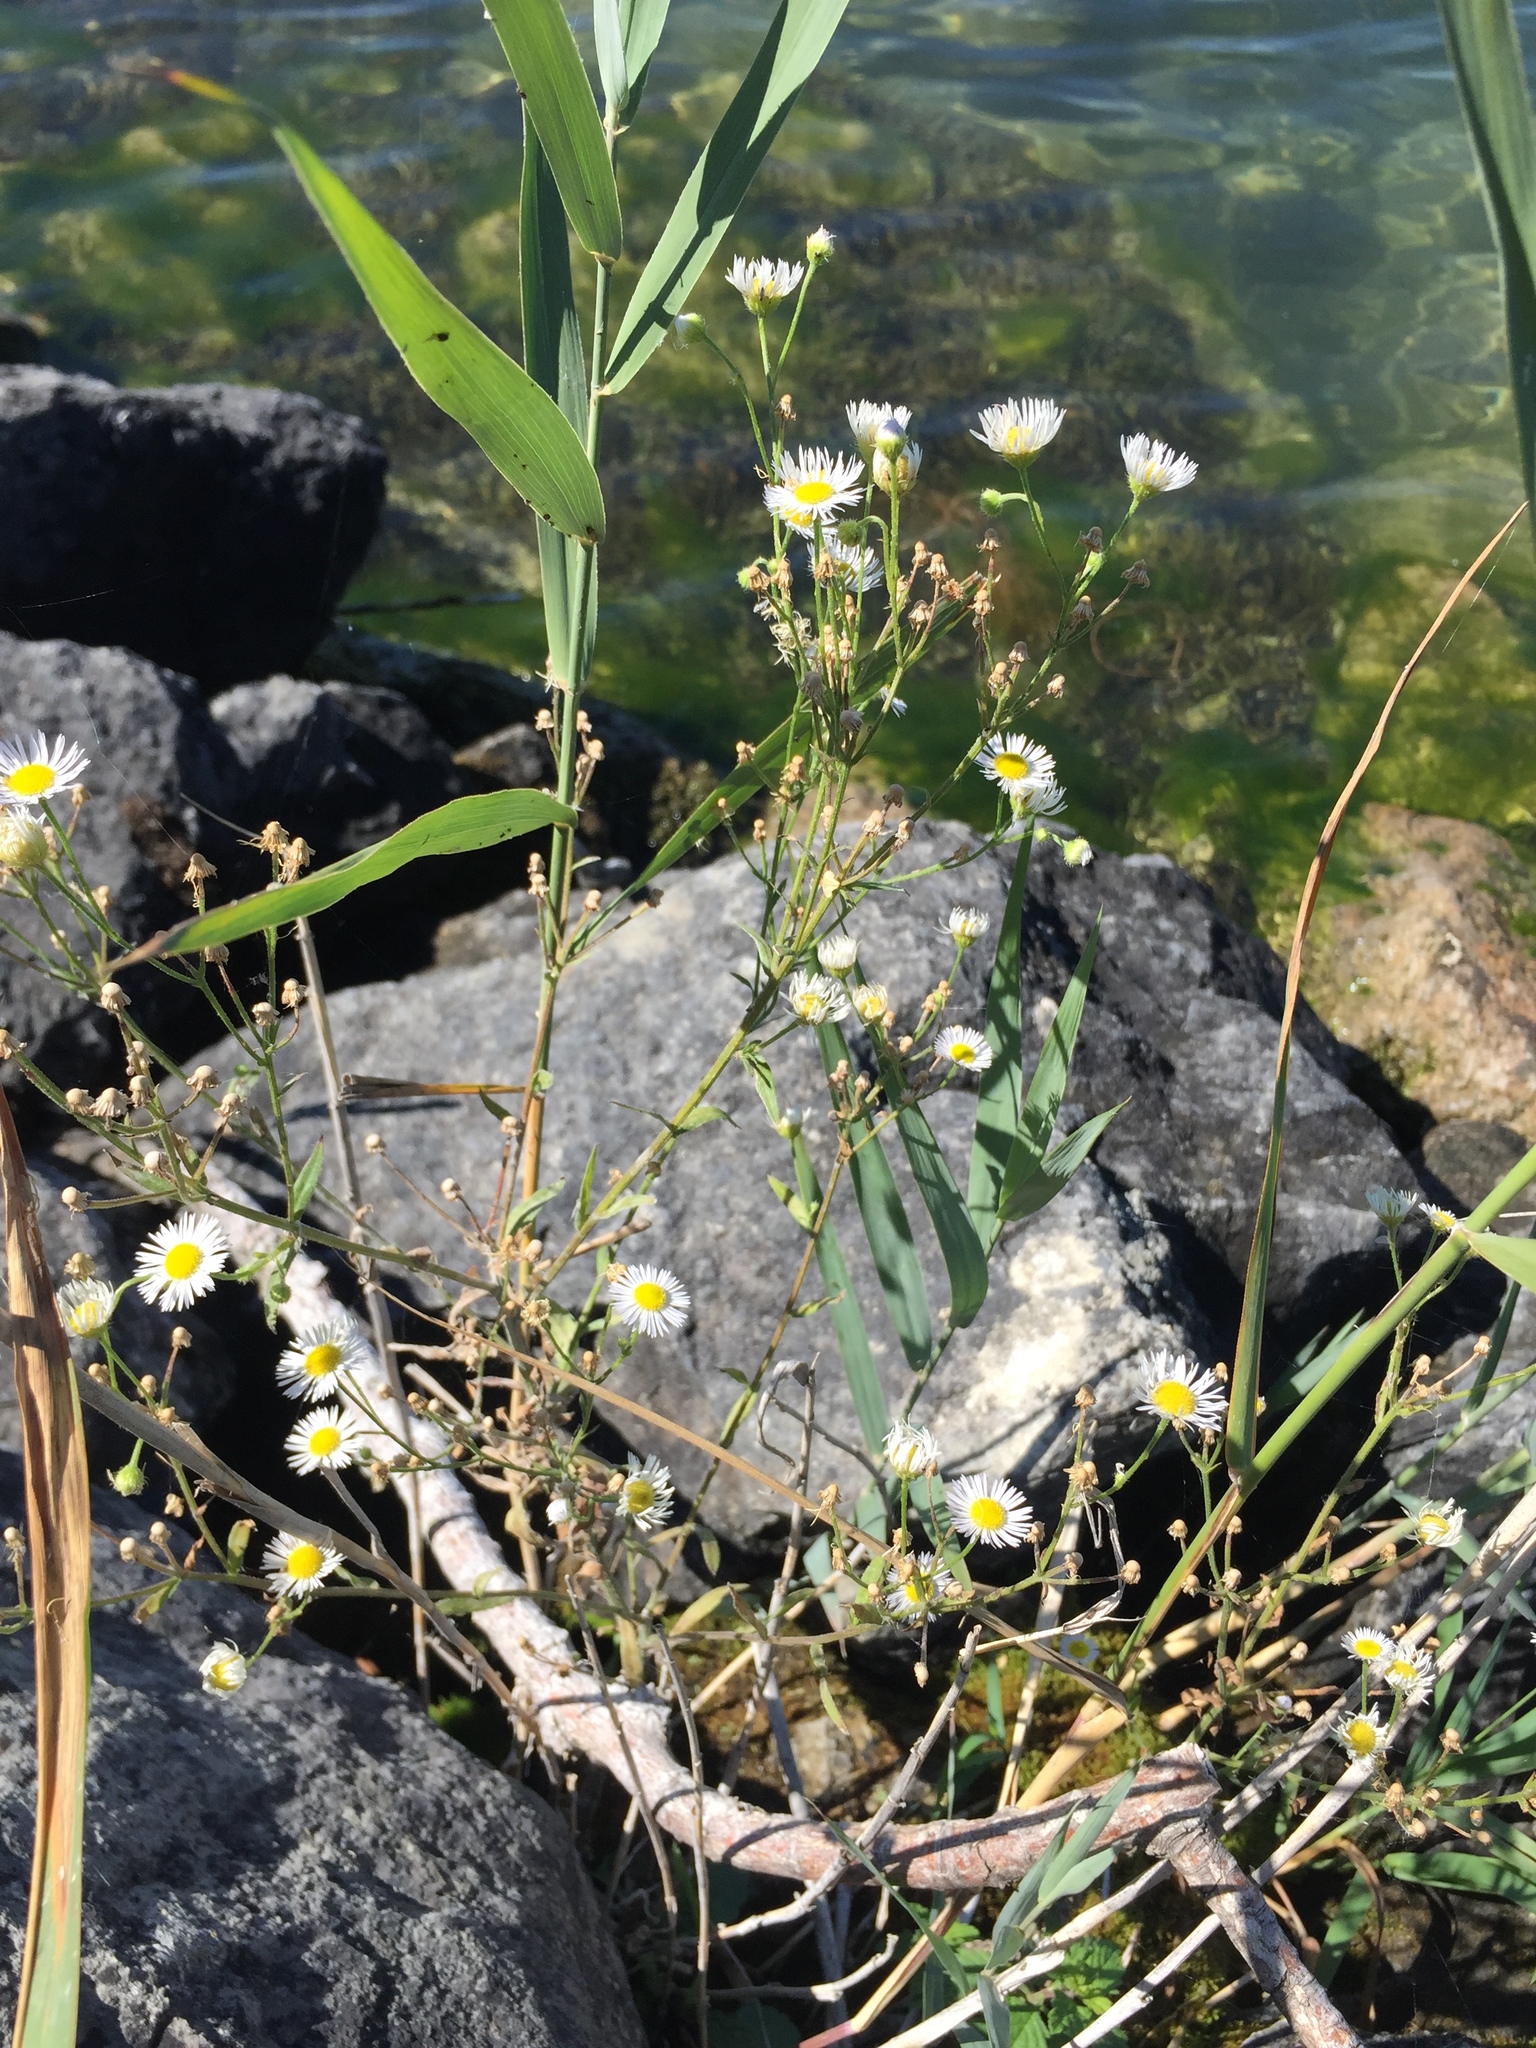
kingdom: Plantae
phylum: Tracheophyta
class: Magnoliopsida
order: Asterales
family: Asteraceae
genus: Erigeron
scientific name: Erigeron annuus
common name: Tall fleabane
